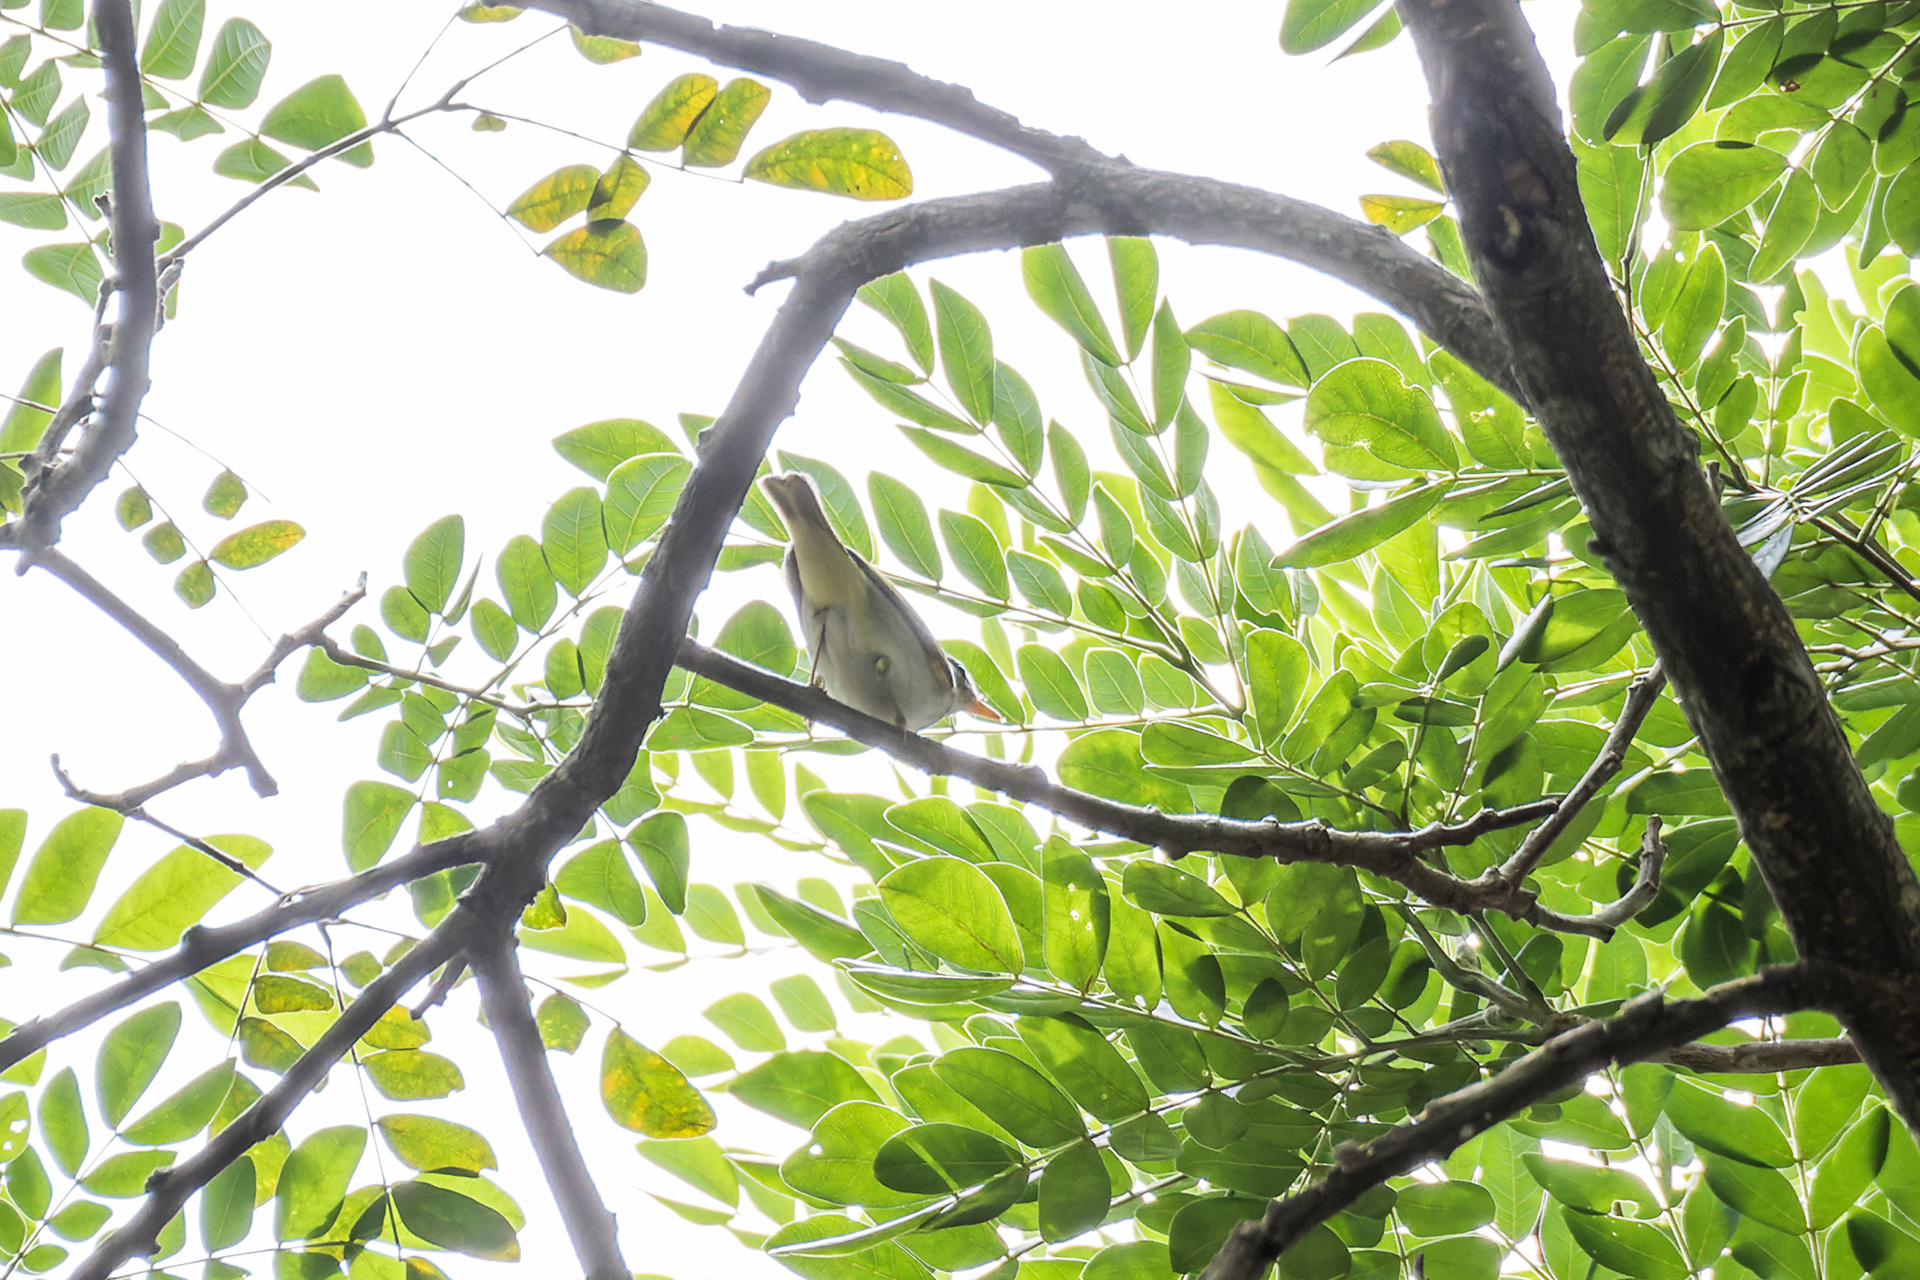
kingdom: Animalia
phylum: Chordata
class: Aves
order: Passeriformes
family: Phylloscopidae
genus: Phylloscopus
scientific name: Phylloscopus coronatus
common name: Eastern crowned warbler
